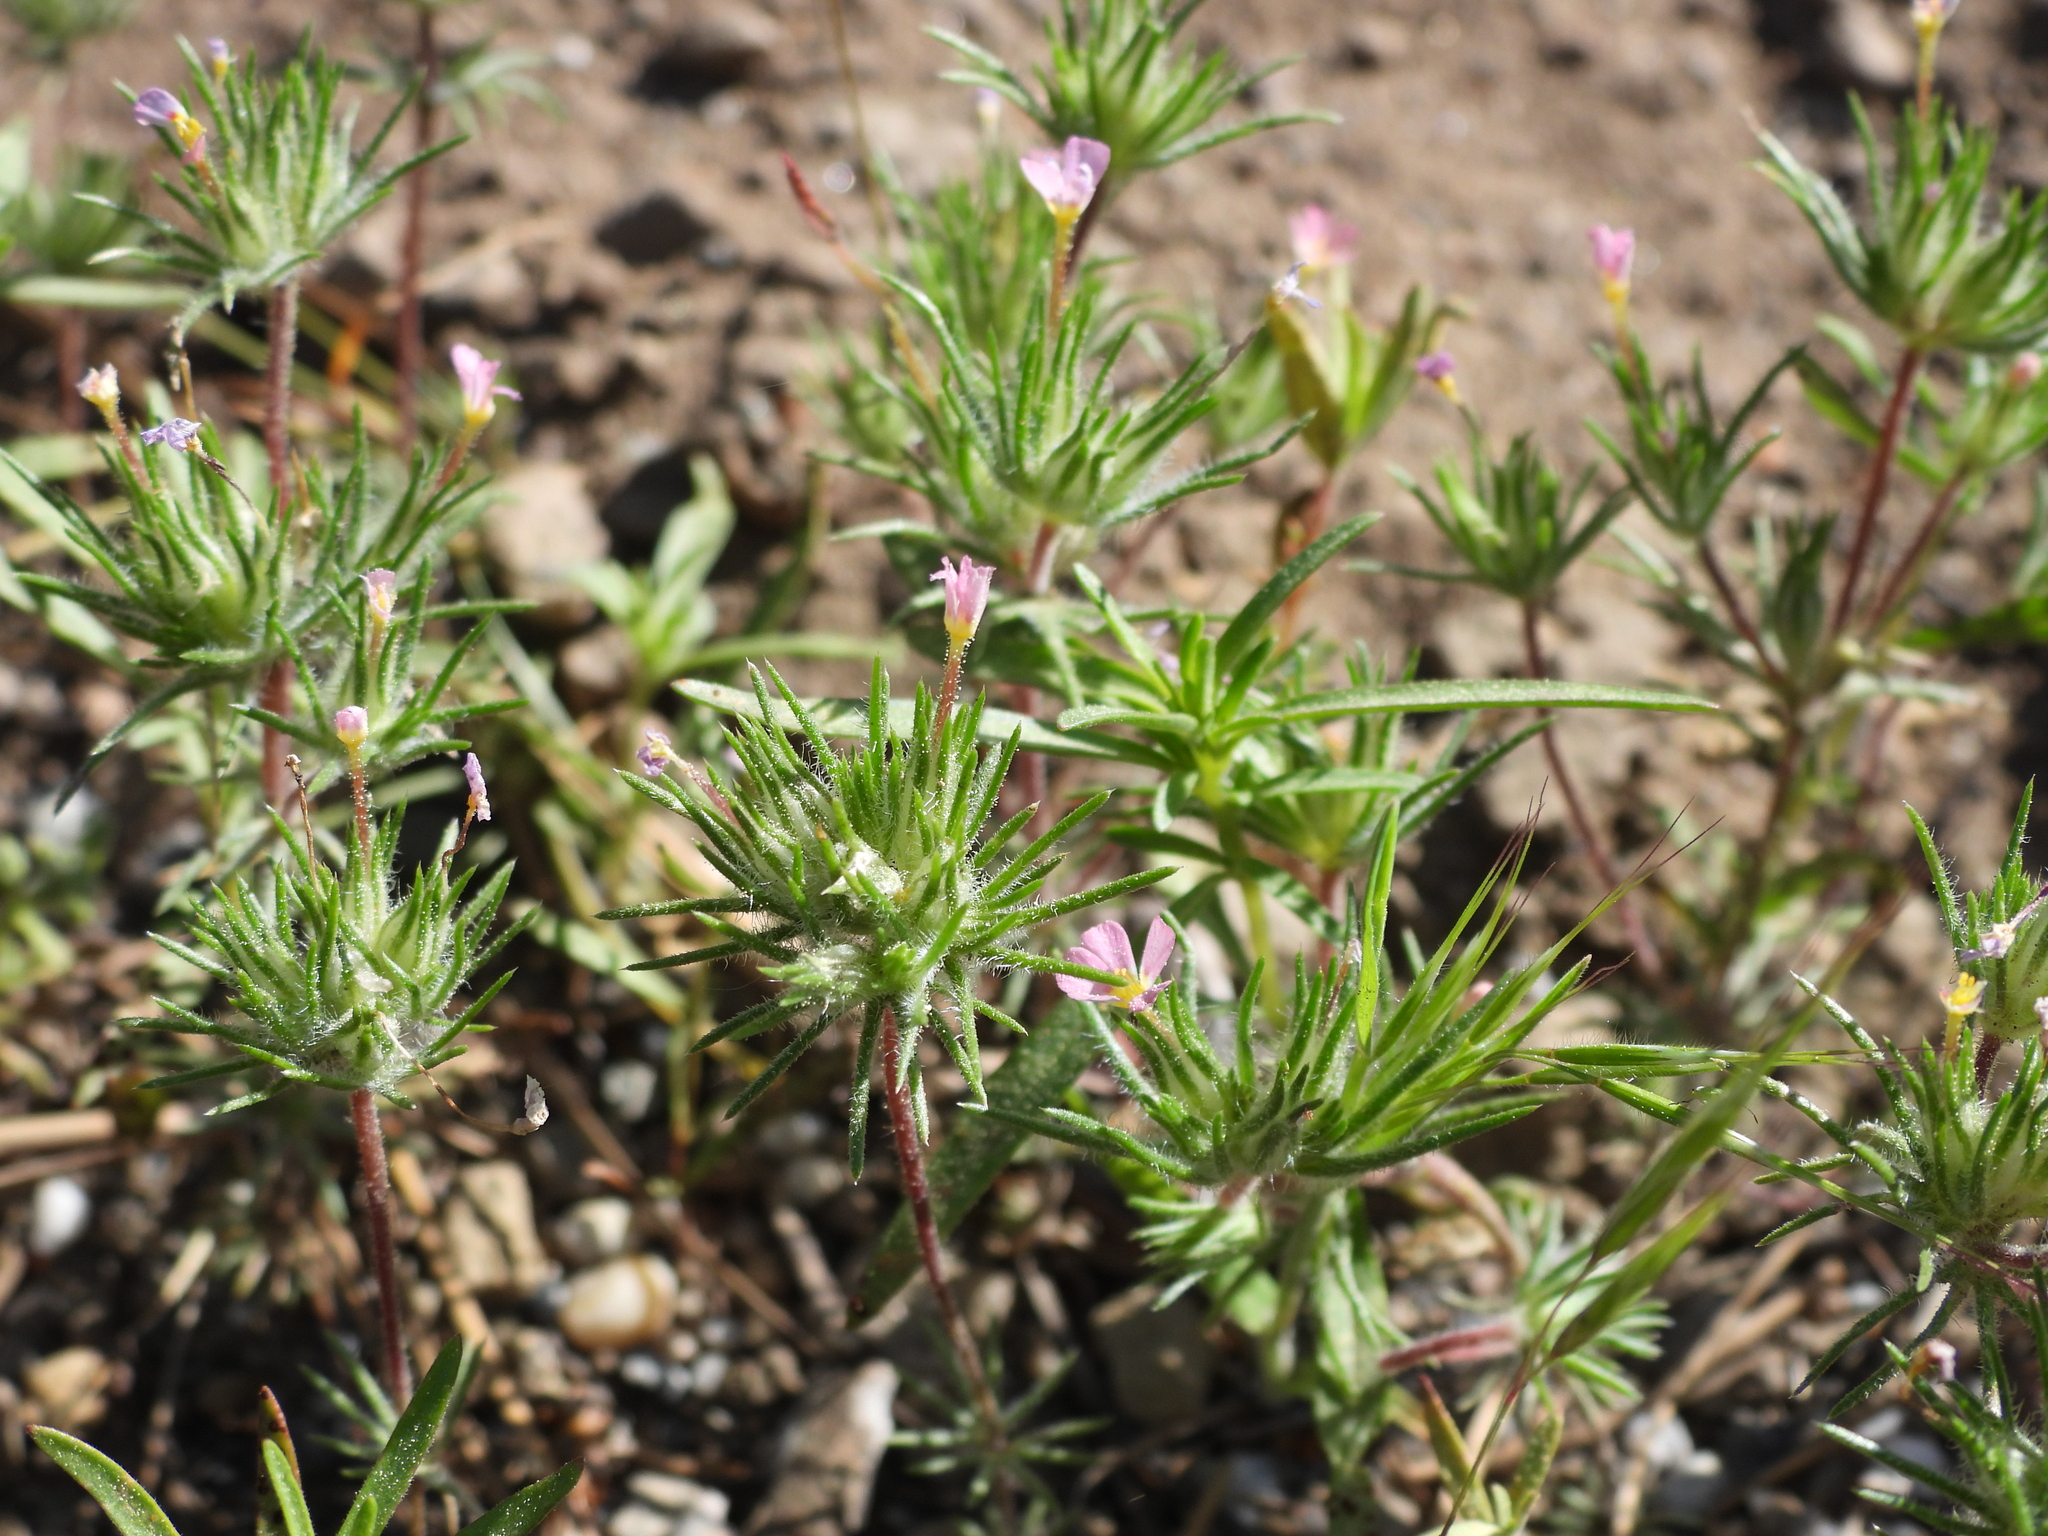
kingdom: Plantae
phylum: Tracheophyta
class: Magnoliopsida
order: Ericales
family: Polemoniaceae
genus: Leptosiphon
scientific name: Leptosiphon ciliatus
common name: Whiskerbrush
